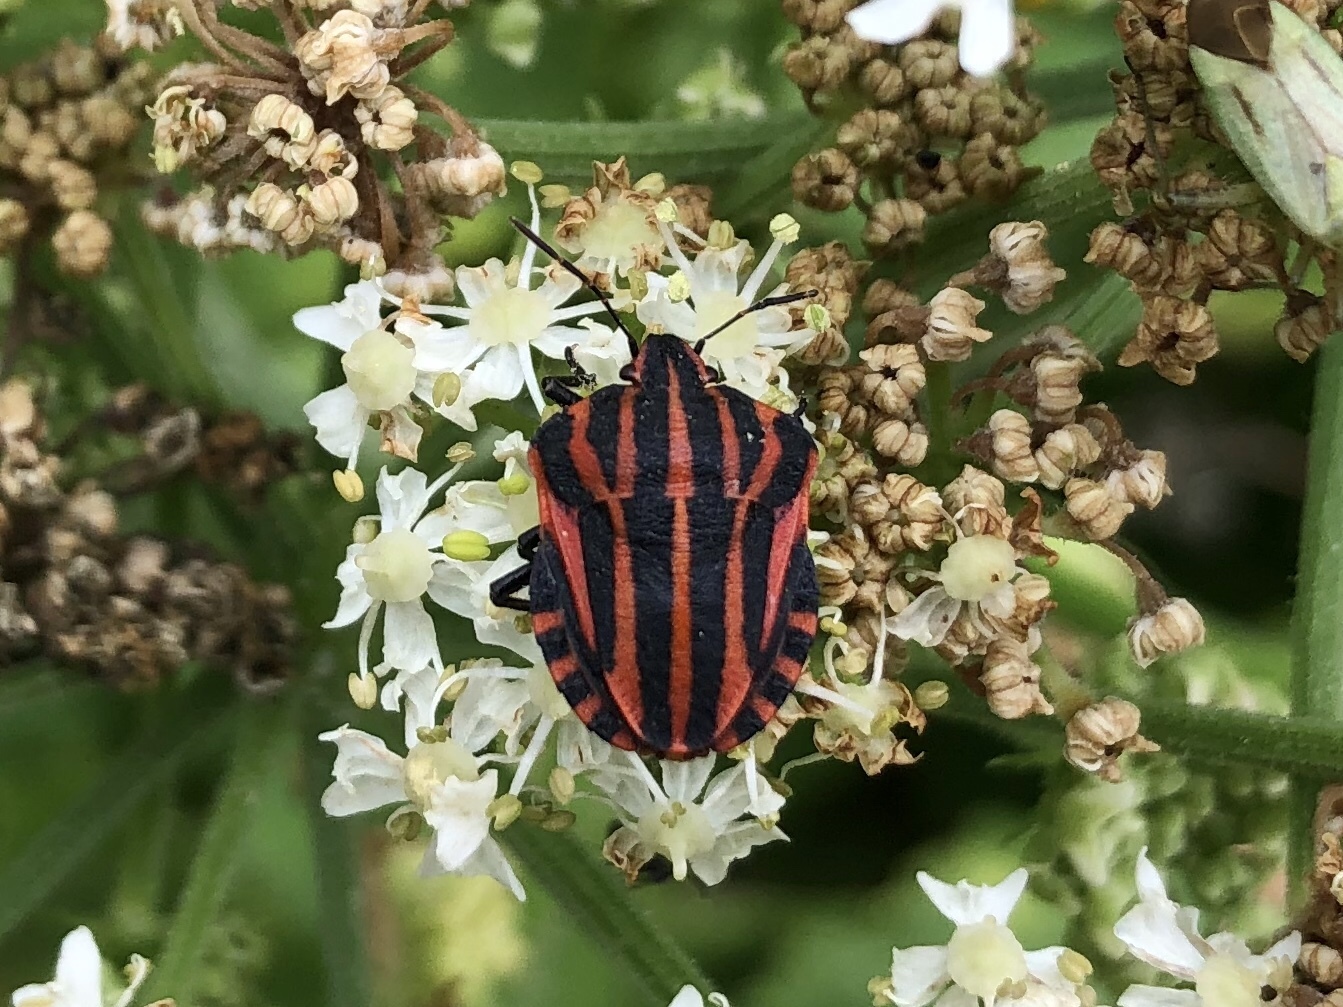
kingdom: Animalia
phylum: Arthropoda
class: Insecta
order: Hemiptera
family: Pentatomidae
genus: Graphosoma
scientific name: Graphosoma italicum
